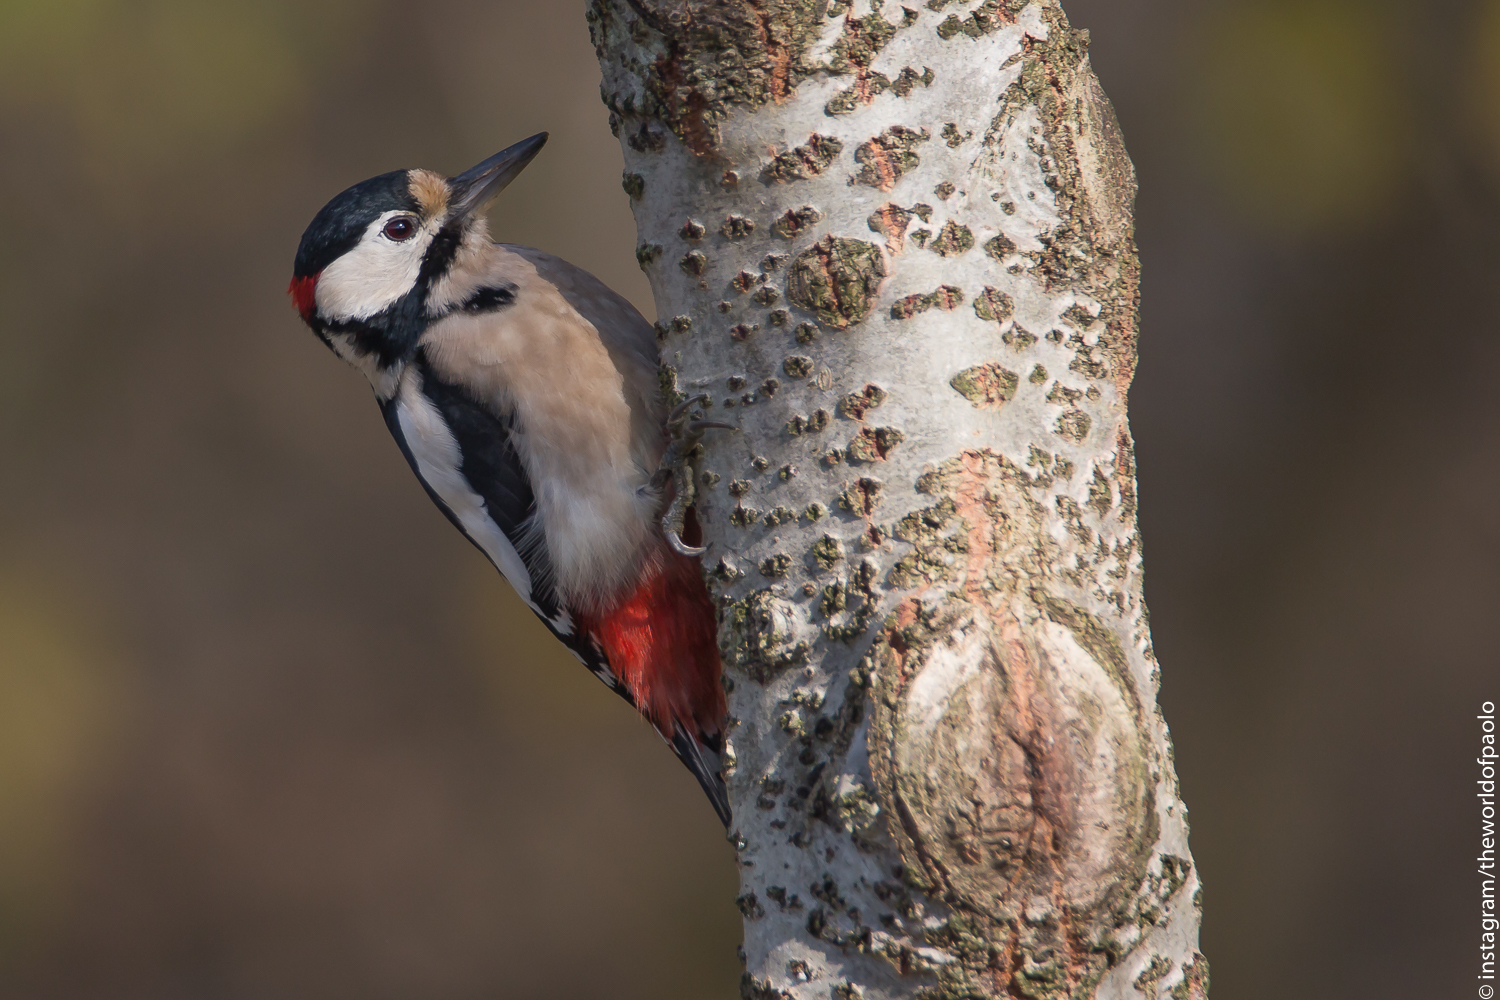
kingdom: Animalia
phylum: Chordata
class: Aves
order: Piciformes
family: Picidae
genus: Dendrocopos
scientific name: Dendrocopos major
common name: Great spotted woodpecker
